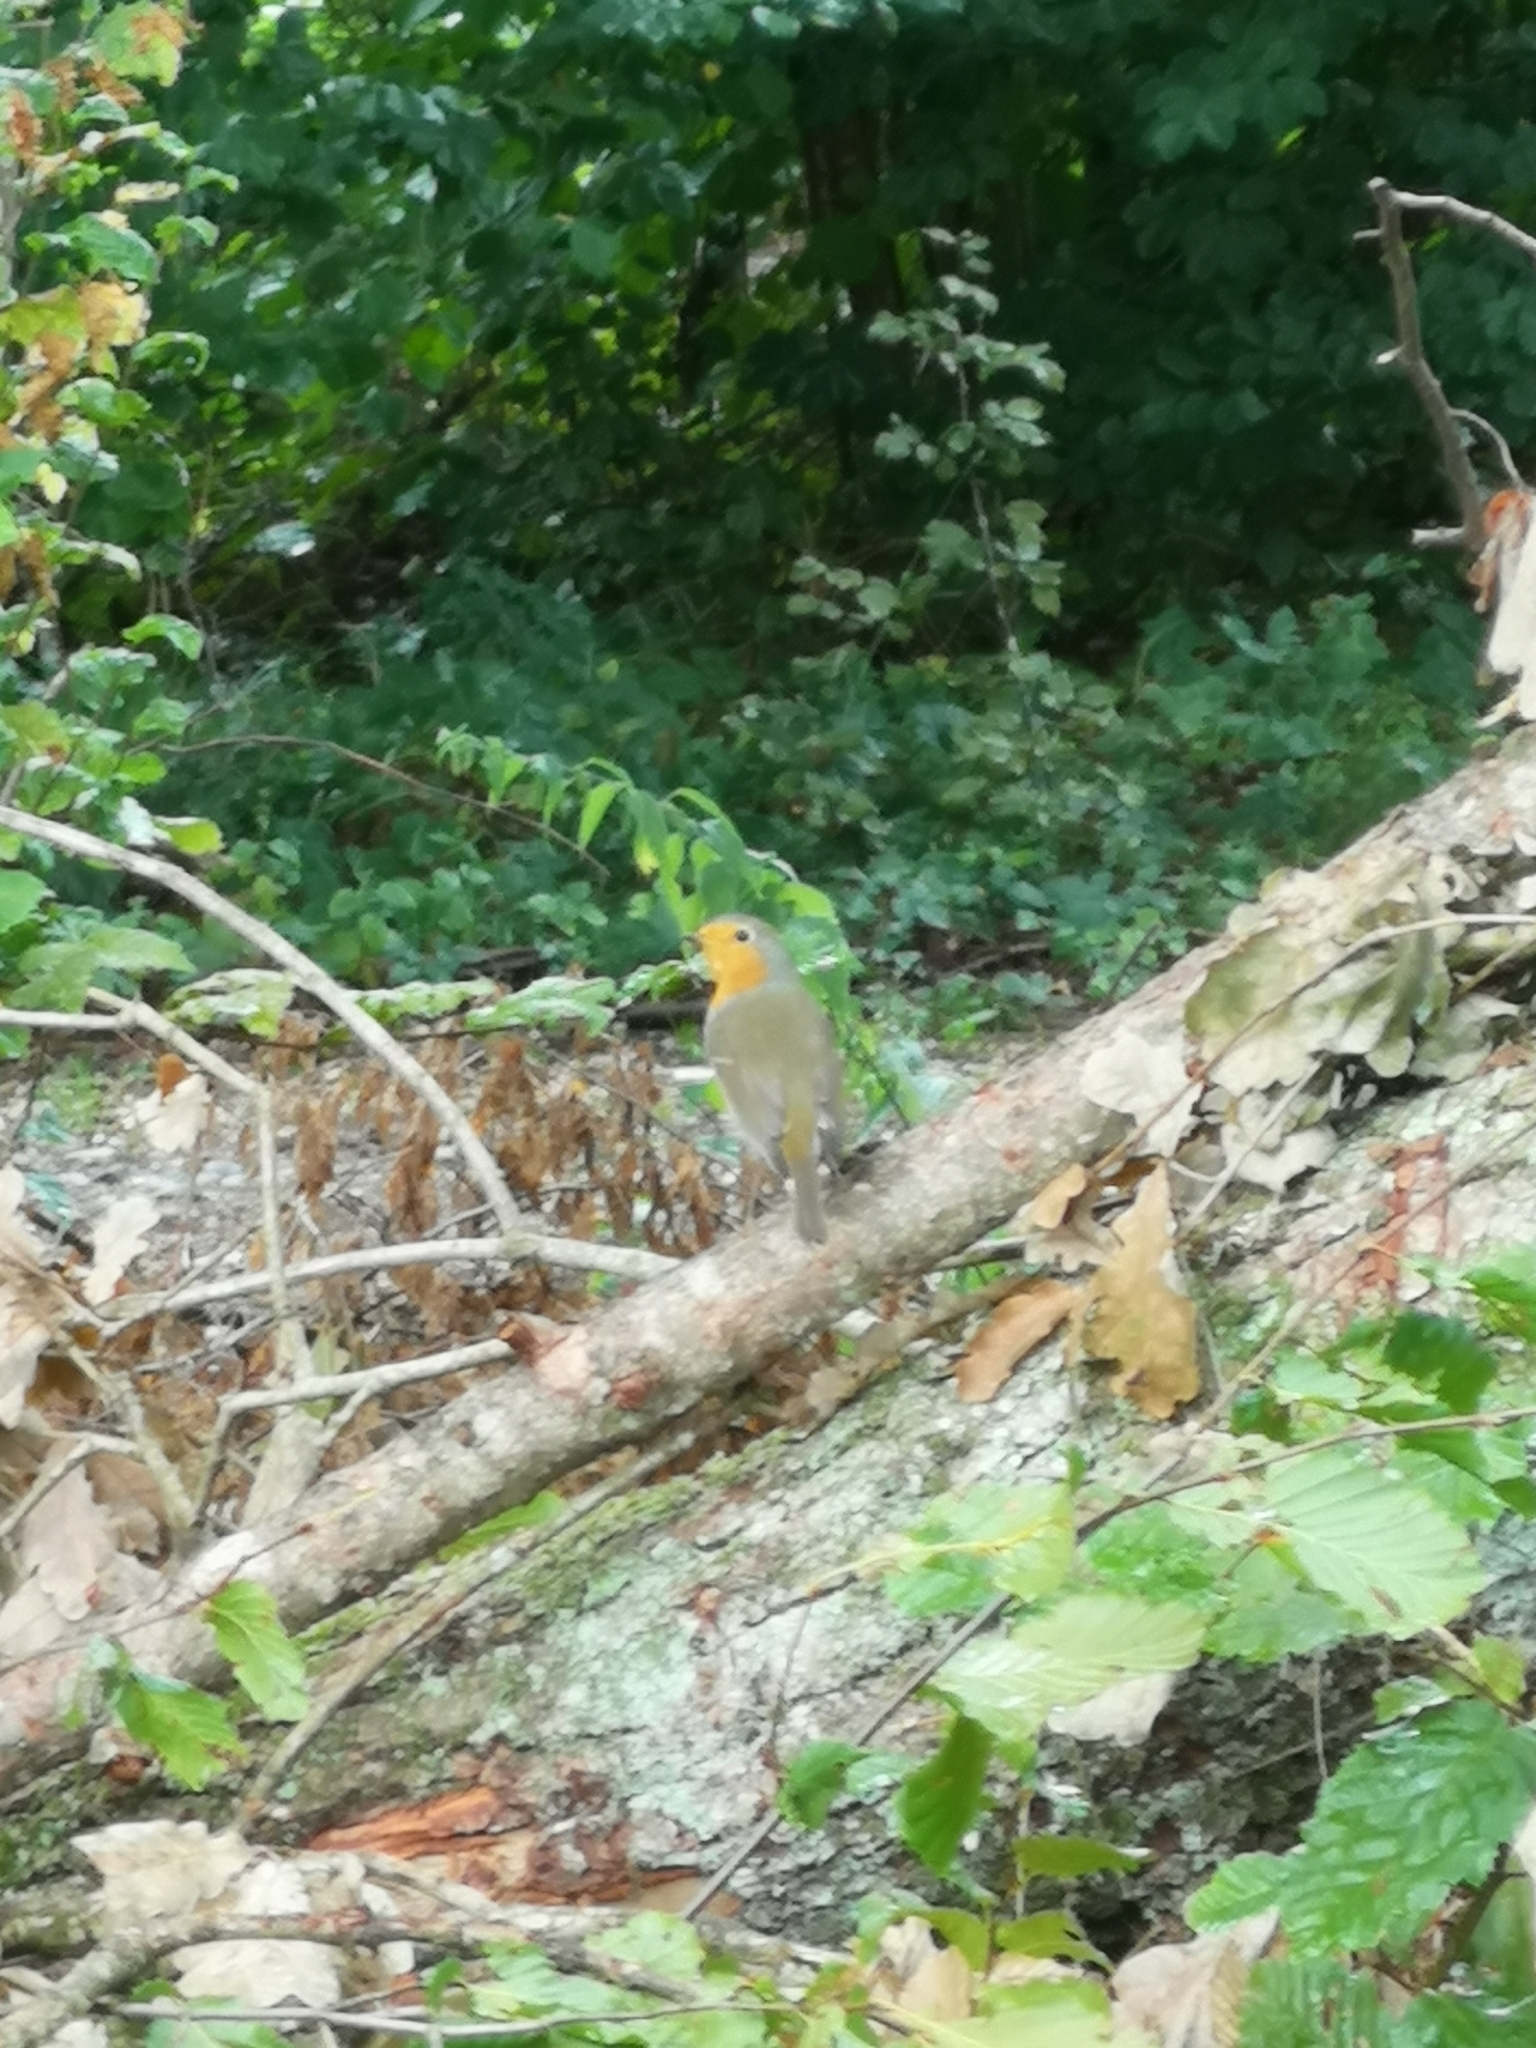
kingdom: Animalia
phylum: Chordata
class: Aves
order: Passeriformes
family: Muscicapidae
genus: Erithacus
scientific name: Erithacus rubecula
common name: European robin
